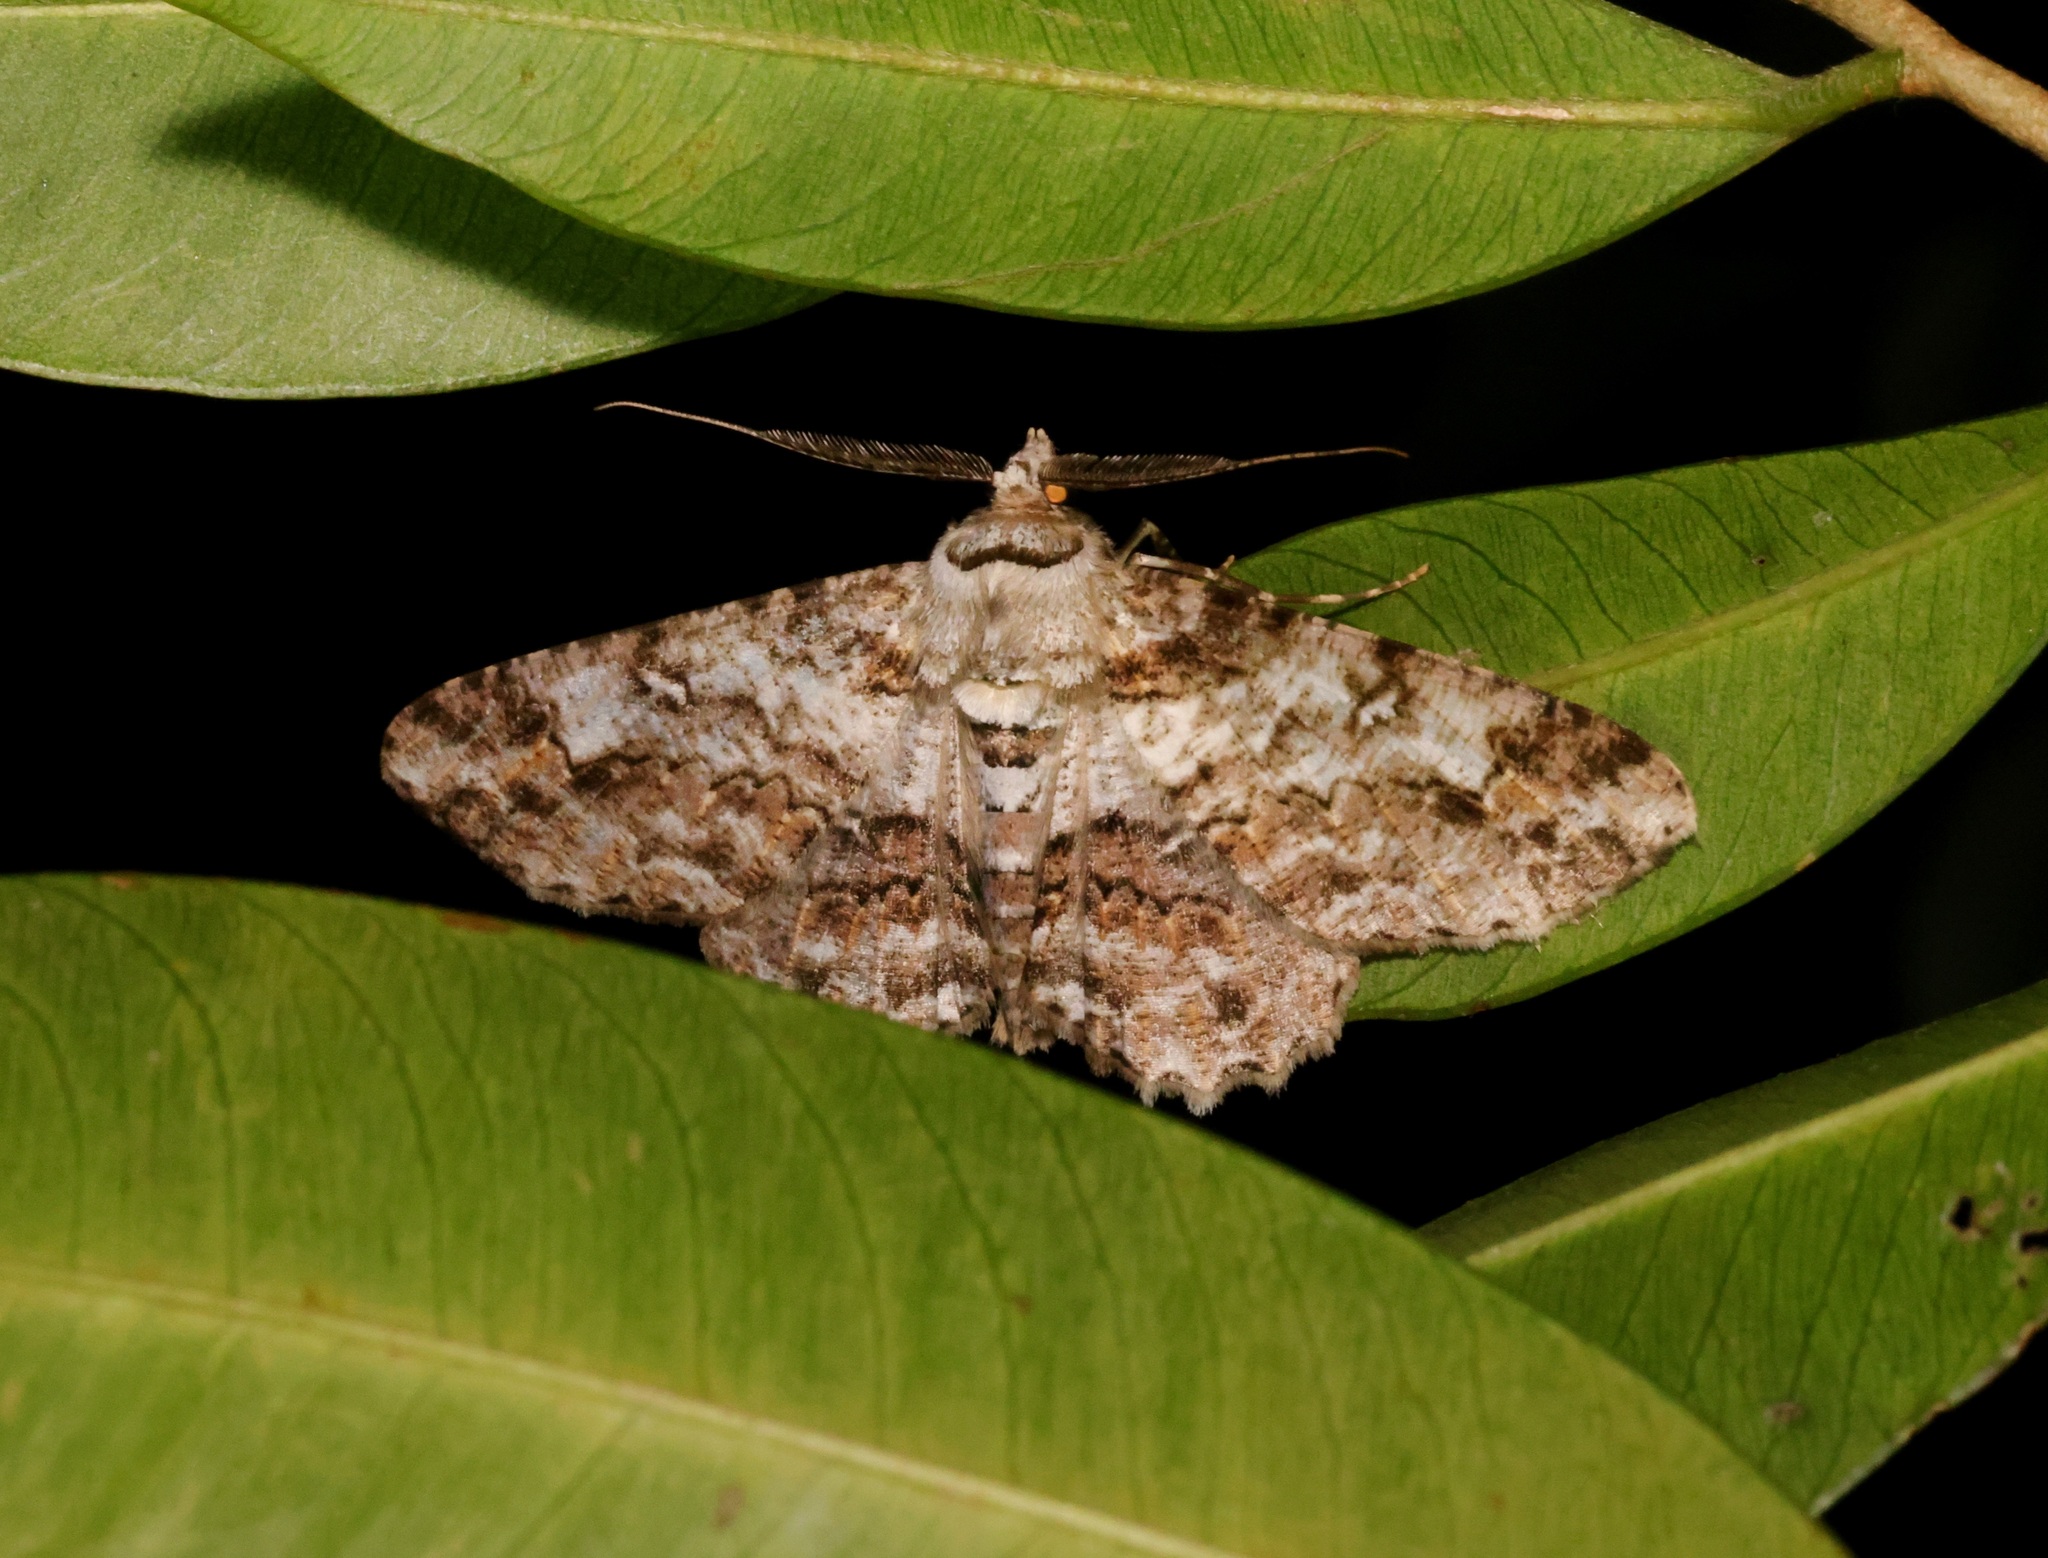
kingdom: Animalia
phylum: Arthropoda
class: Insecta
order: Lepidoptera
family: Geometridae
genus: Cleora
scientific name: Cleora fraterna
